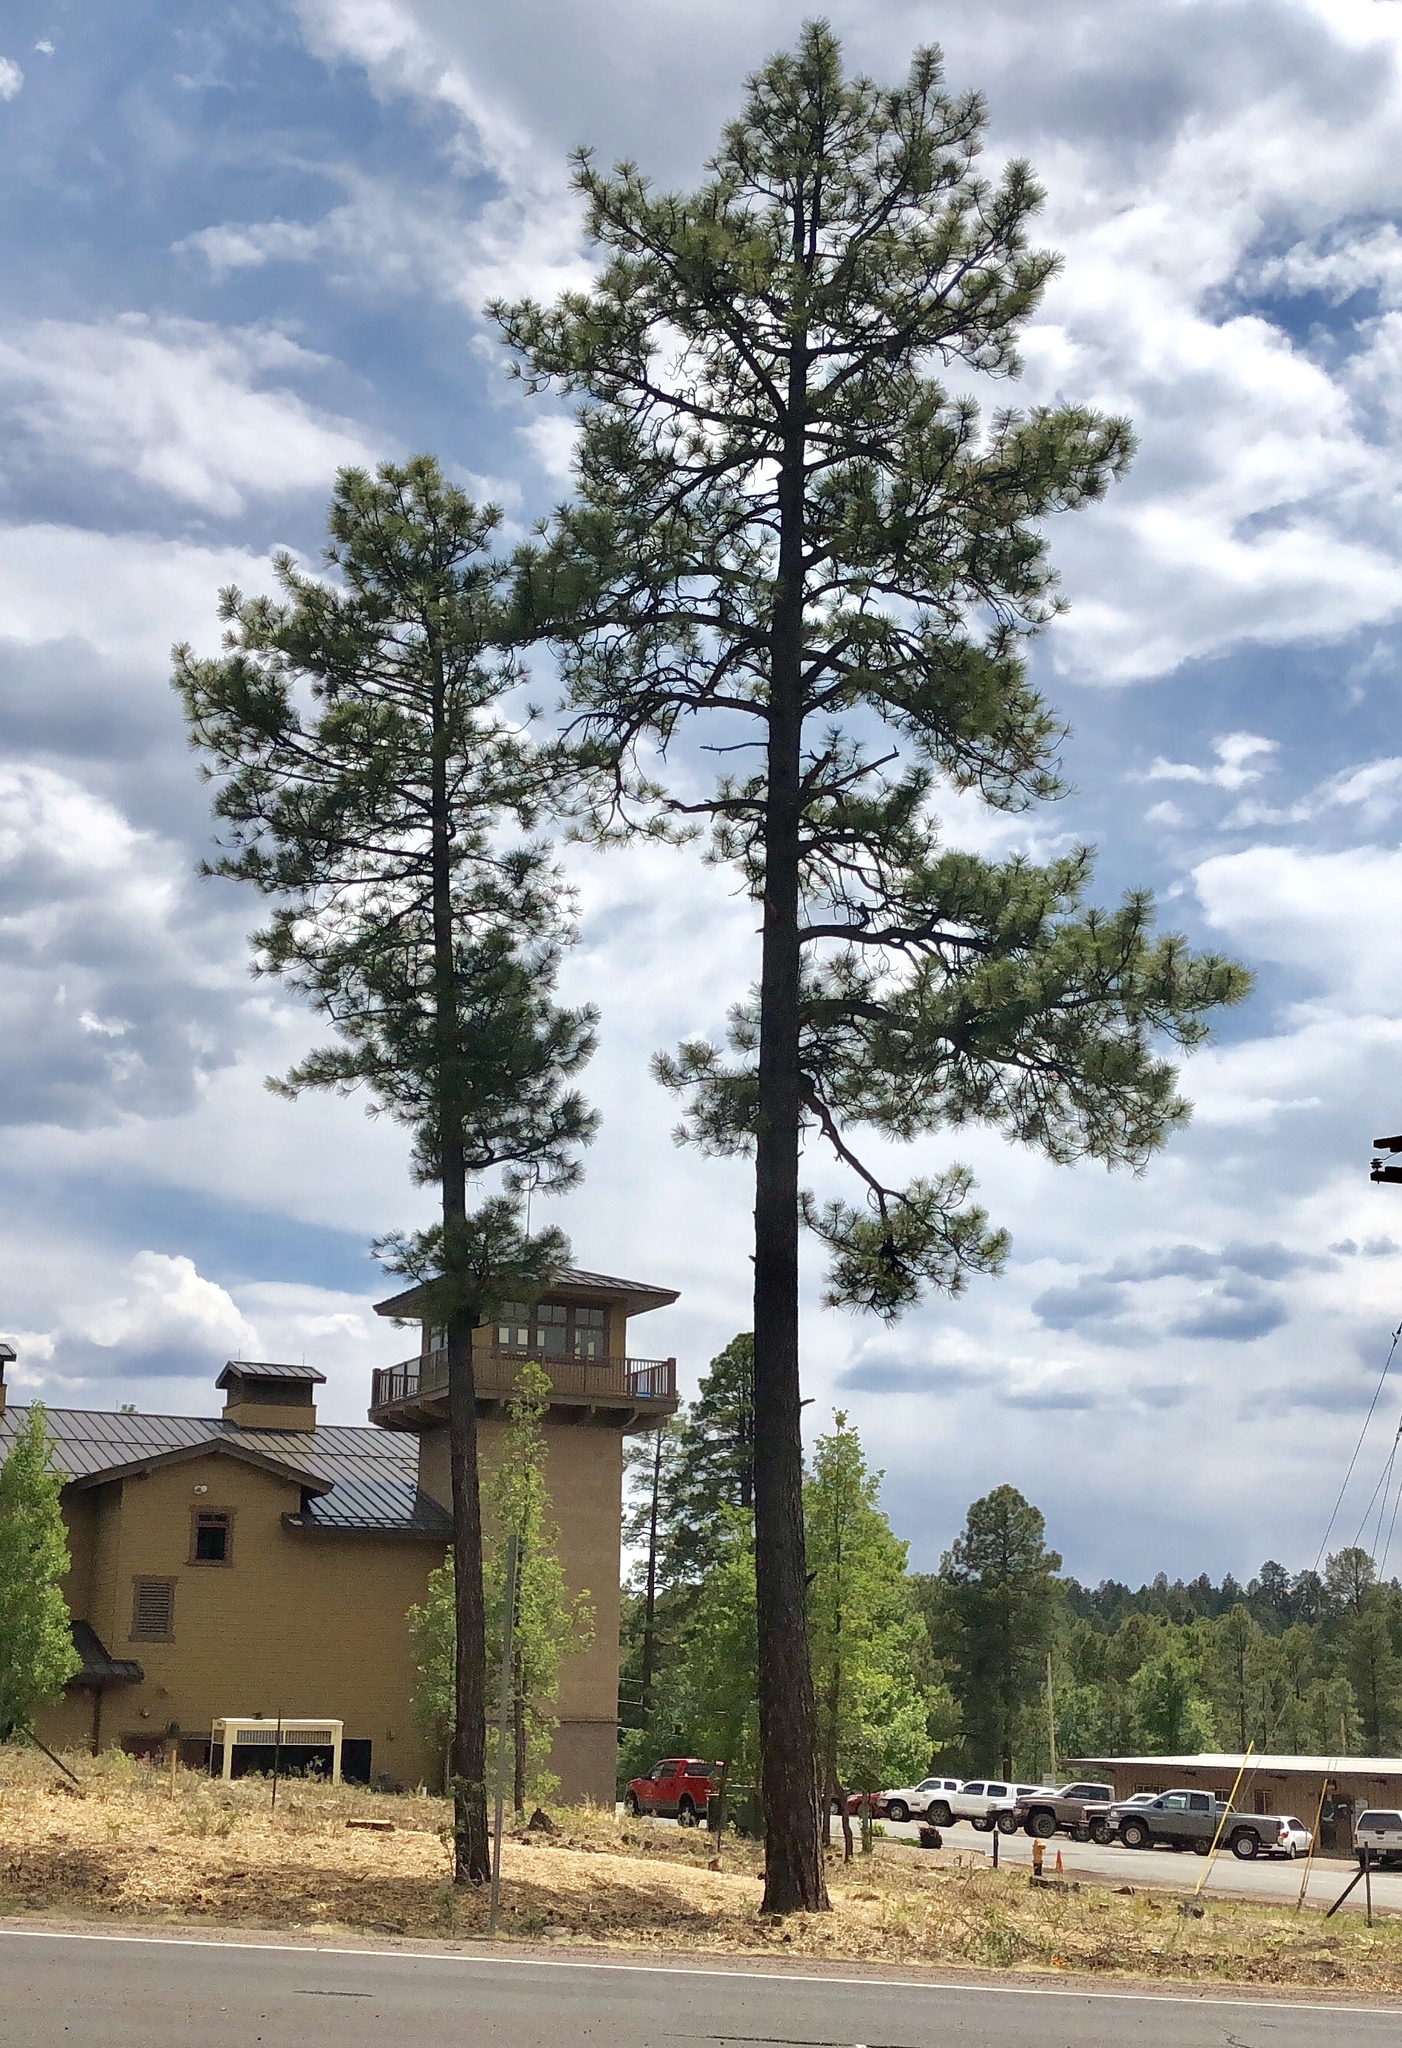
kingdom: Plantae
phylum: Tracheophyta
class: Pinopsida
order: Pinales
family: Pinaceae
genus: Pinus
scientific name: Pinus ponderosa
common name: Western yellow-pine
